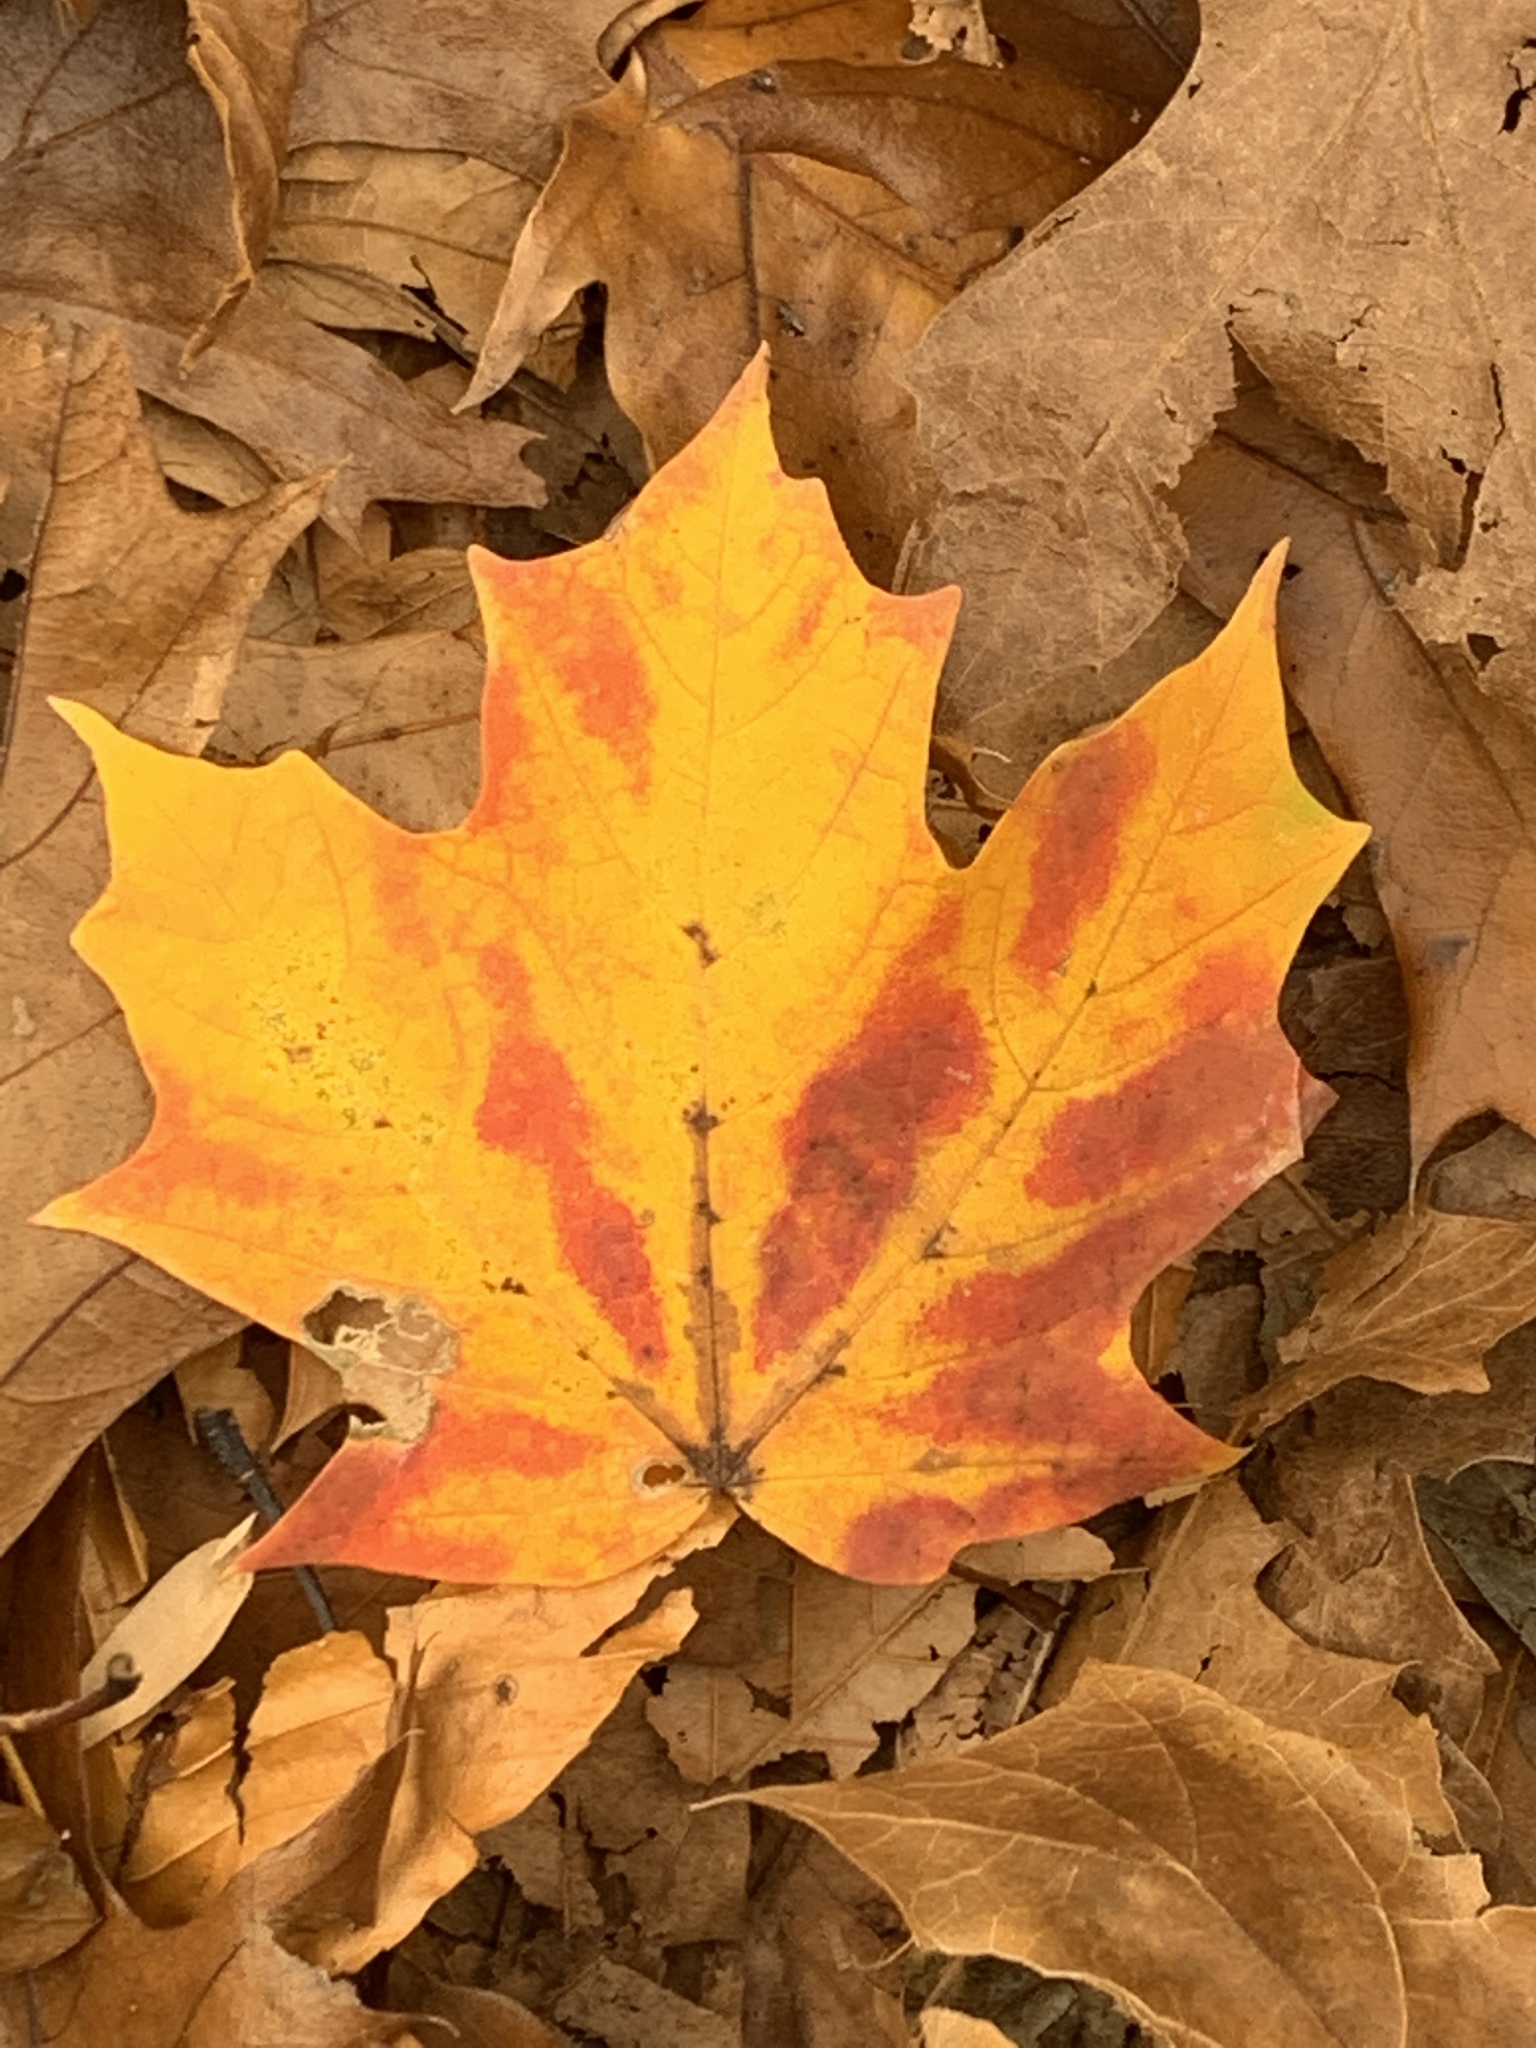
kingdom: Plantae
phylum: Tracheophyta
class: Magnoliopsida
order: Sapindales
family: Sapindaceae
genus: Acer
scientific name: Acer saccharum
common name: Sugar maple
